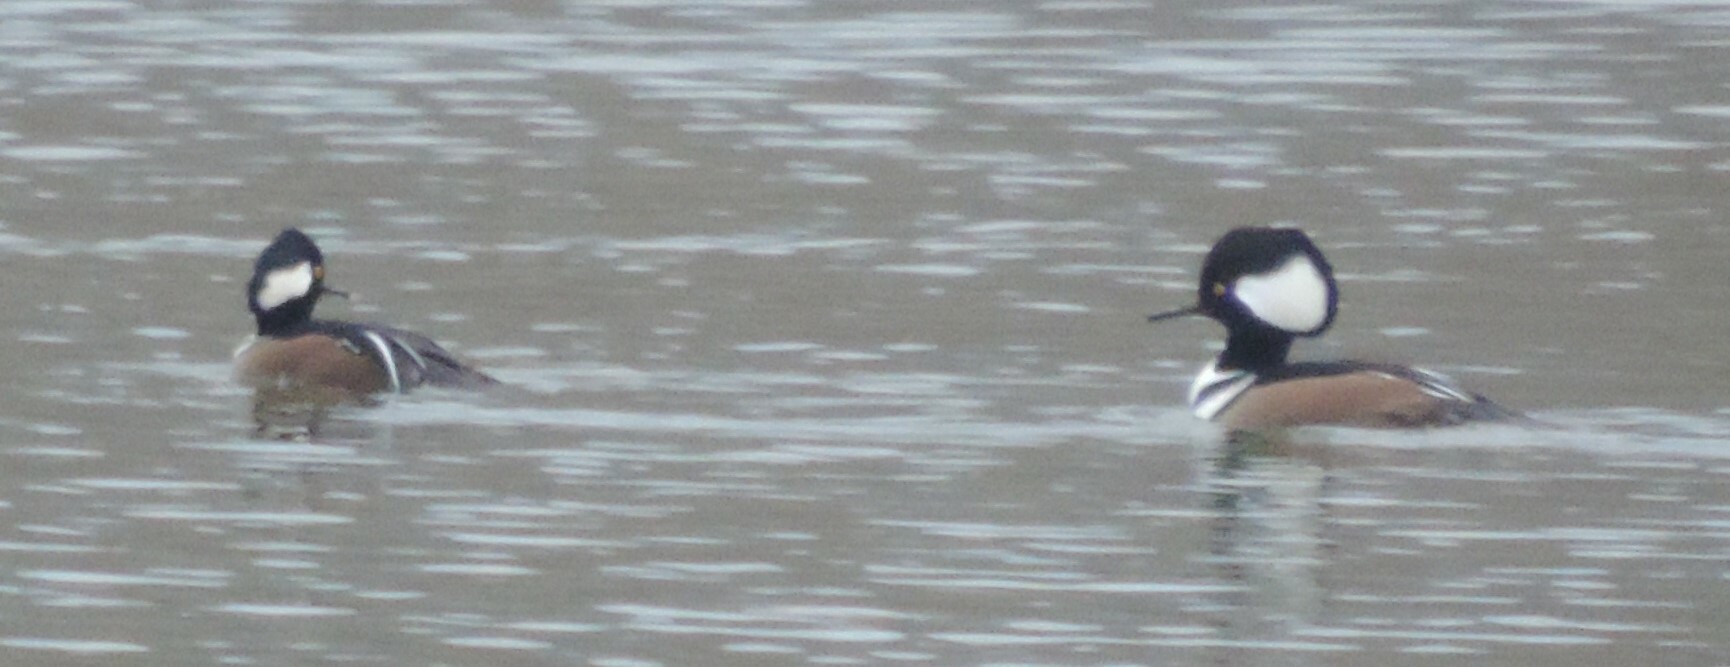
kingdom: Animalia
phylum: Chordata
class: Aves
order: Anseriformes
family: Anatidae
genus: Lophodytes
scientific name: Lophodytes cucullatus
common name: Hooded merganser
